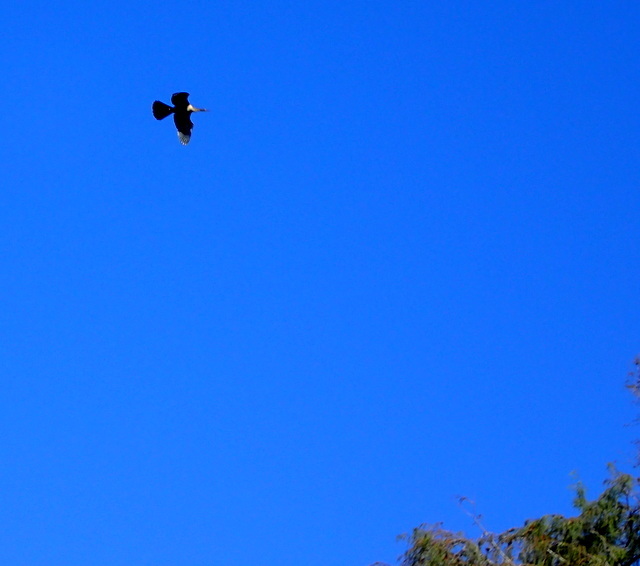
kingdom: Animalia
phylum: Chordata
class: Aves
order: Suliformes
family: Anhingidae
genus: Anhinga
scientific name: Anhinga anhinga
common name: Anhinga
